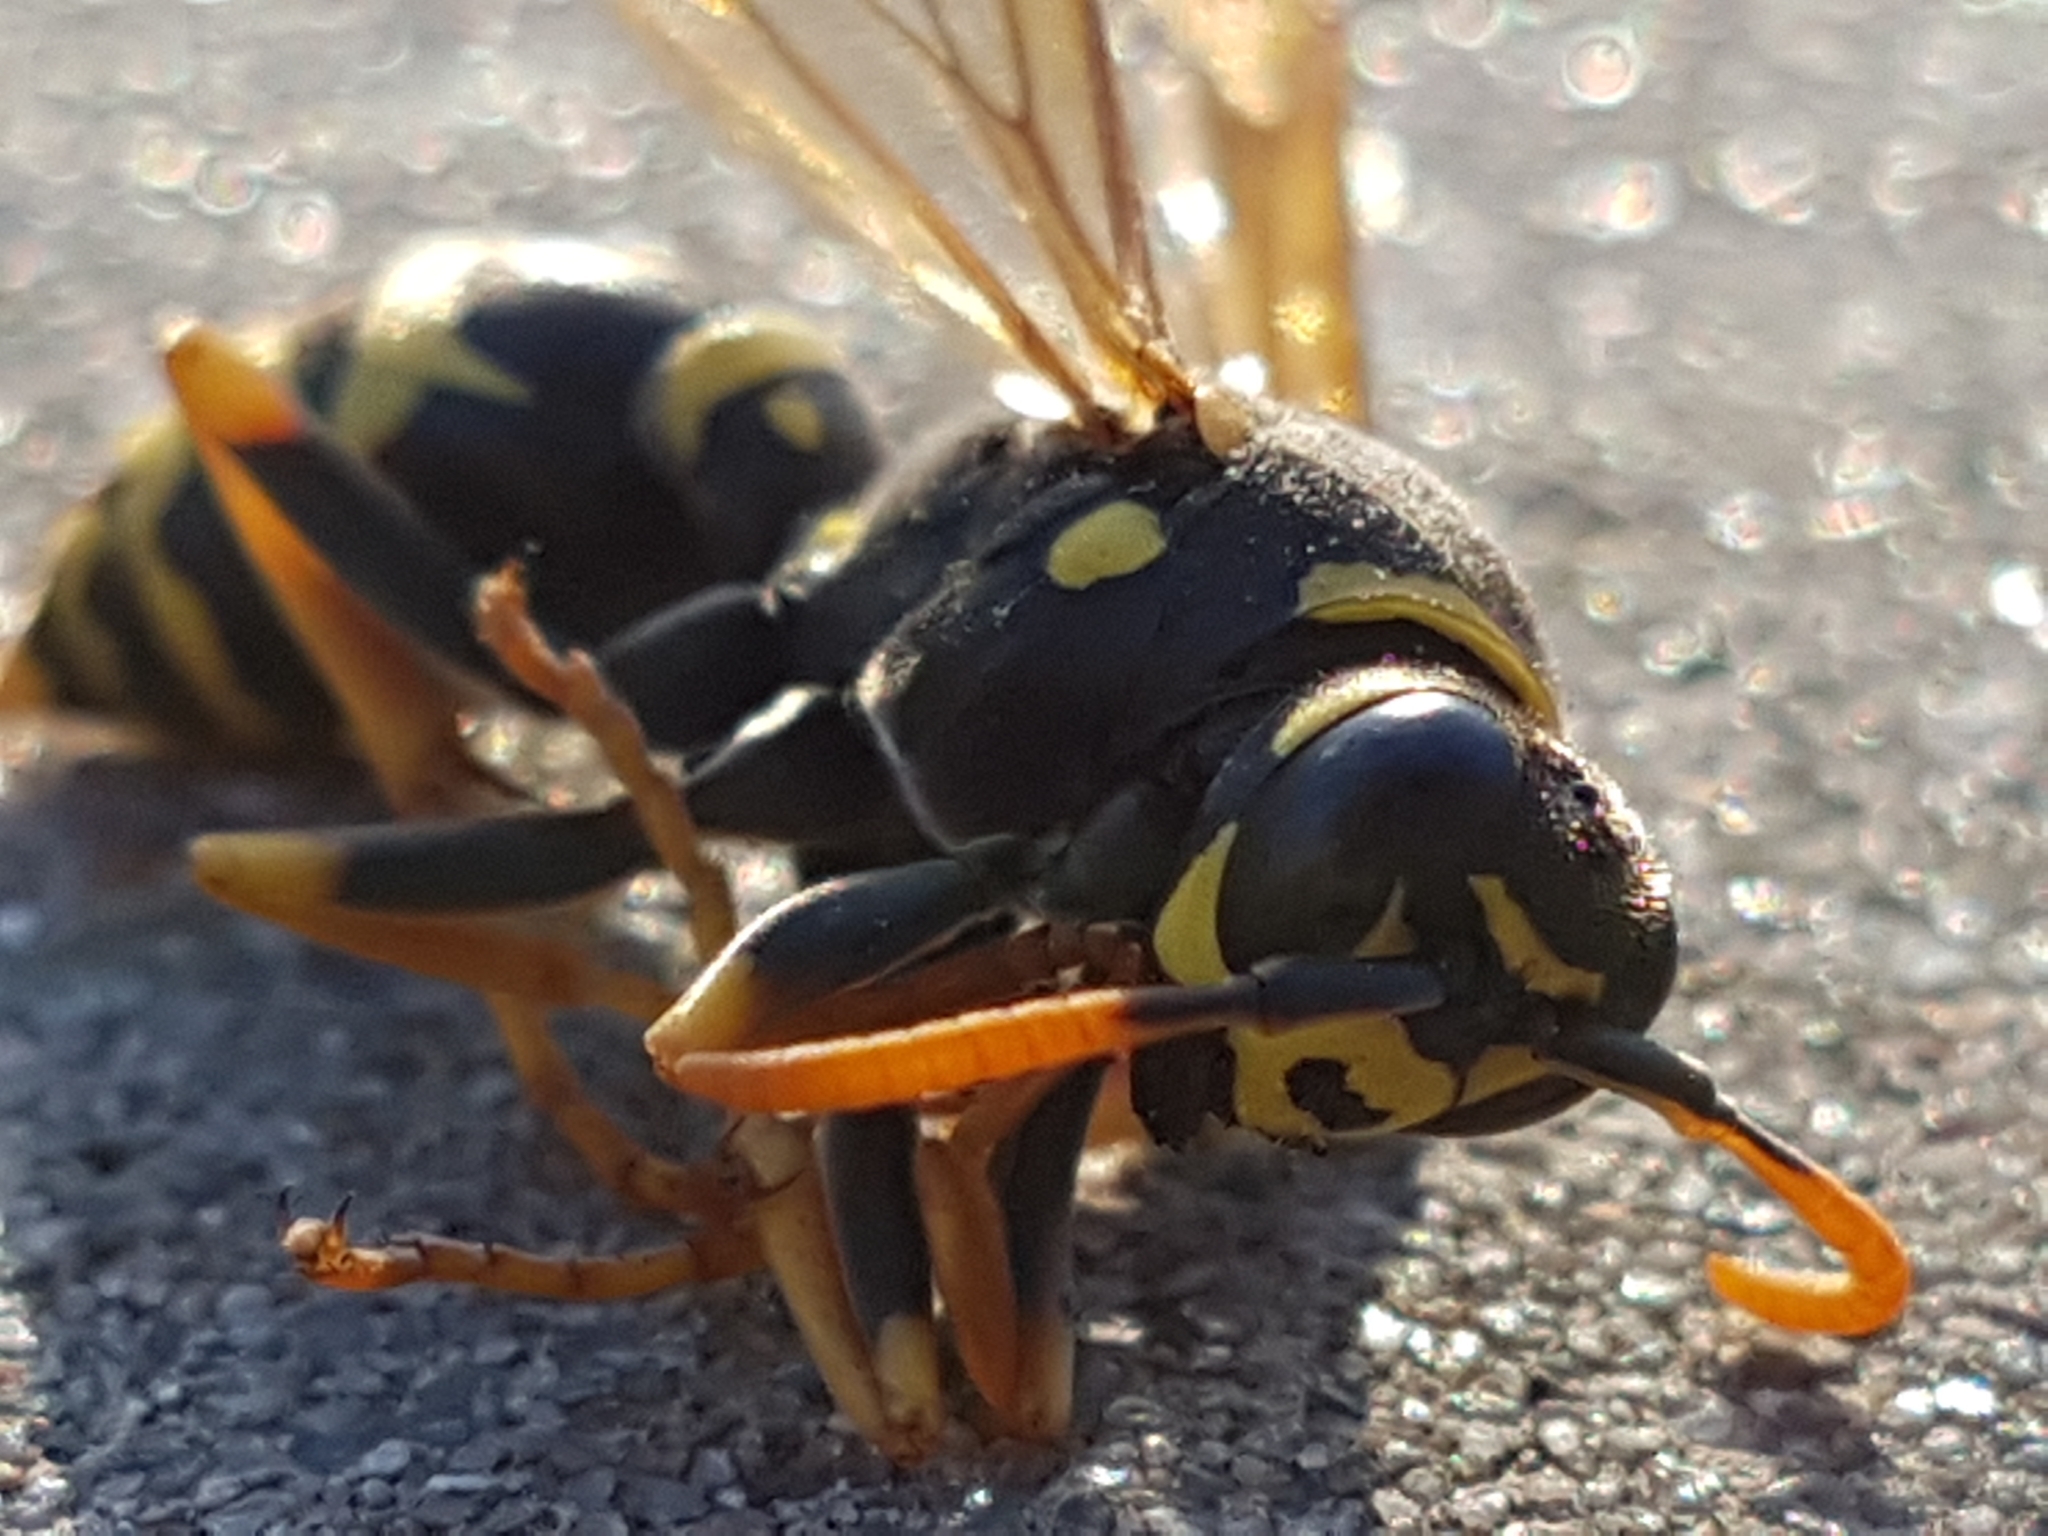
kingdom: Animalia
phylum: Arthropoda
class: Insecta
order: Hymenoptera
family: Eumenidae
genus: Polistes
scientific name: Polistes dominula
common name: Paper wasp
